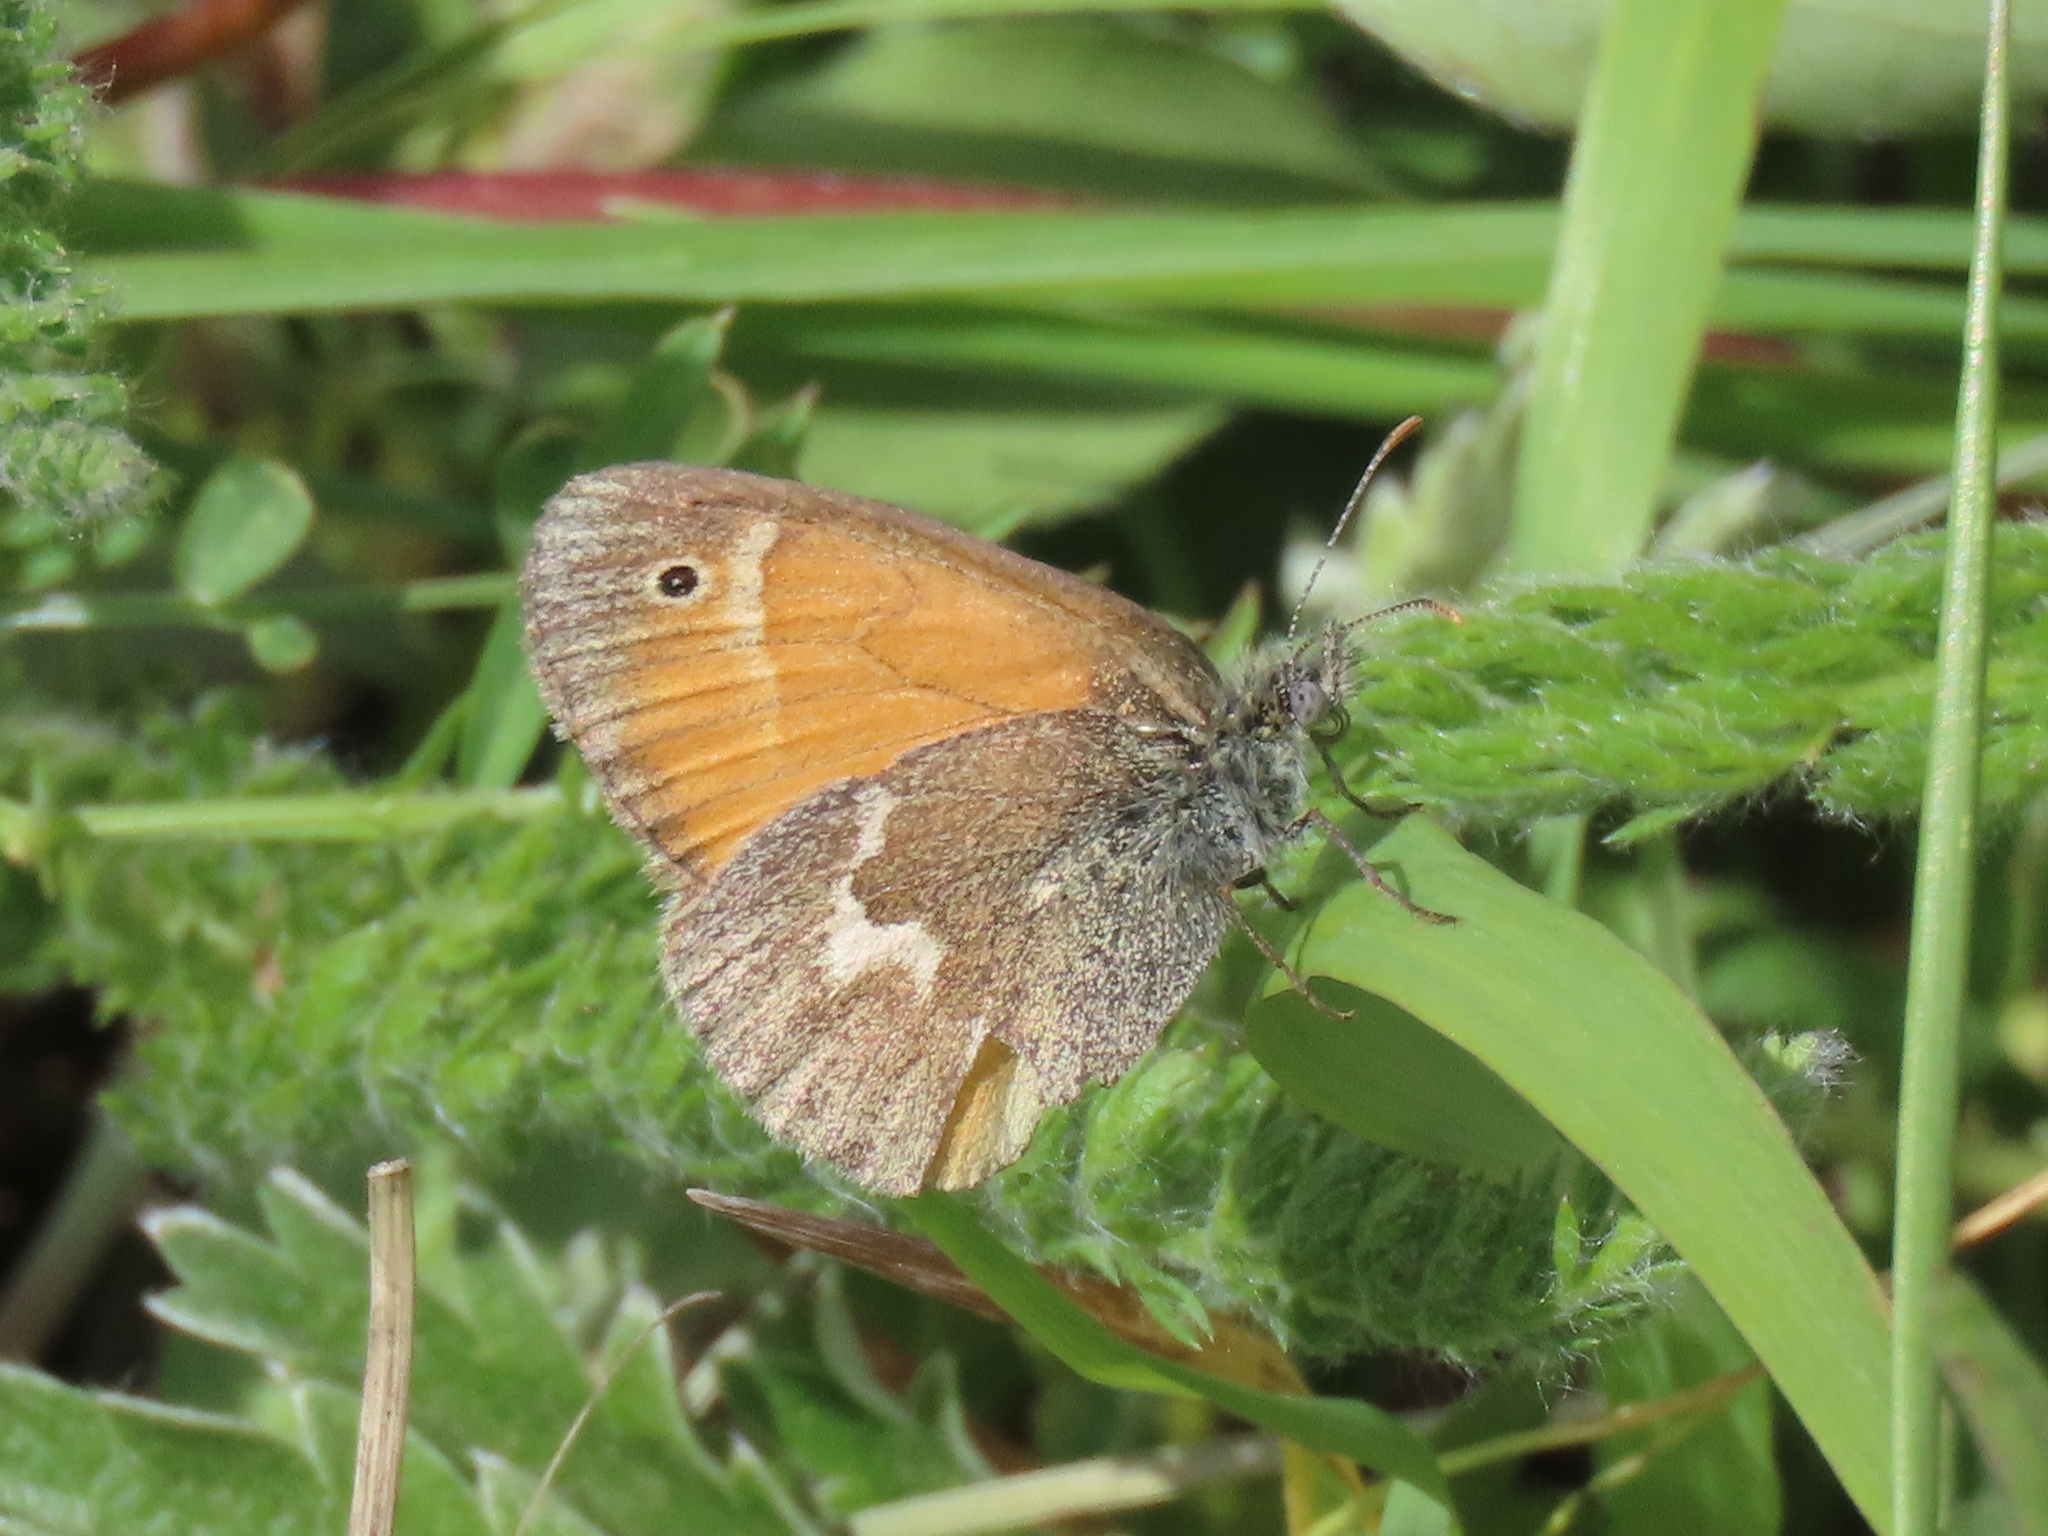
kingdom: Animalia
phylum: Arthropoda
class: Insecta
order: Lepidoptera
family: Nymphalidae
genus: Coenonympha
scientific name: Coenonympha california
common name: Common ringlet
